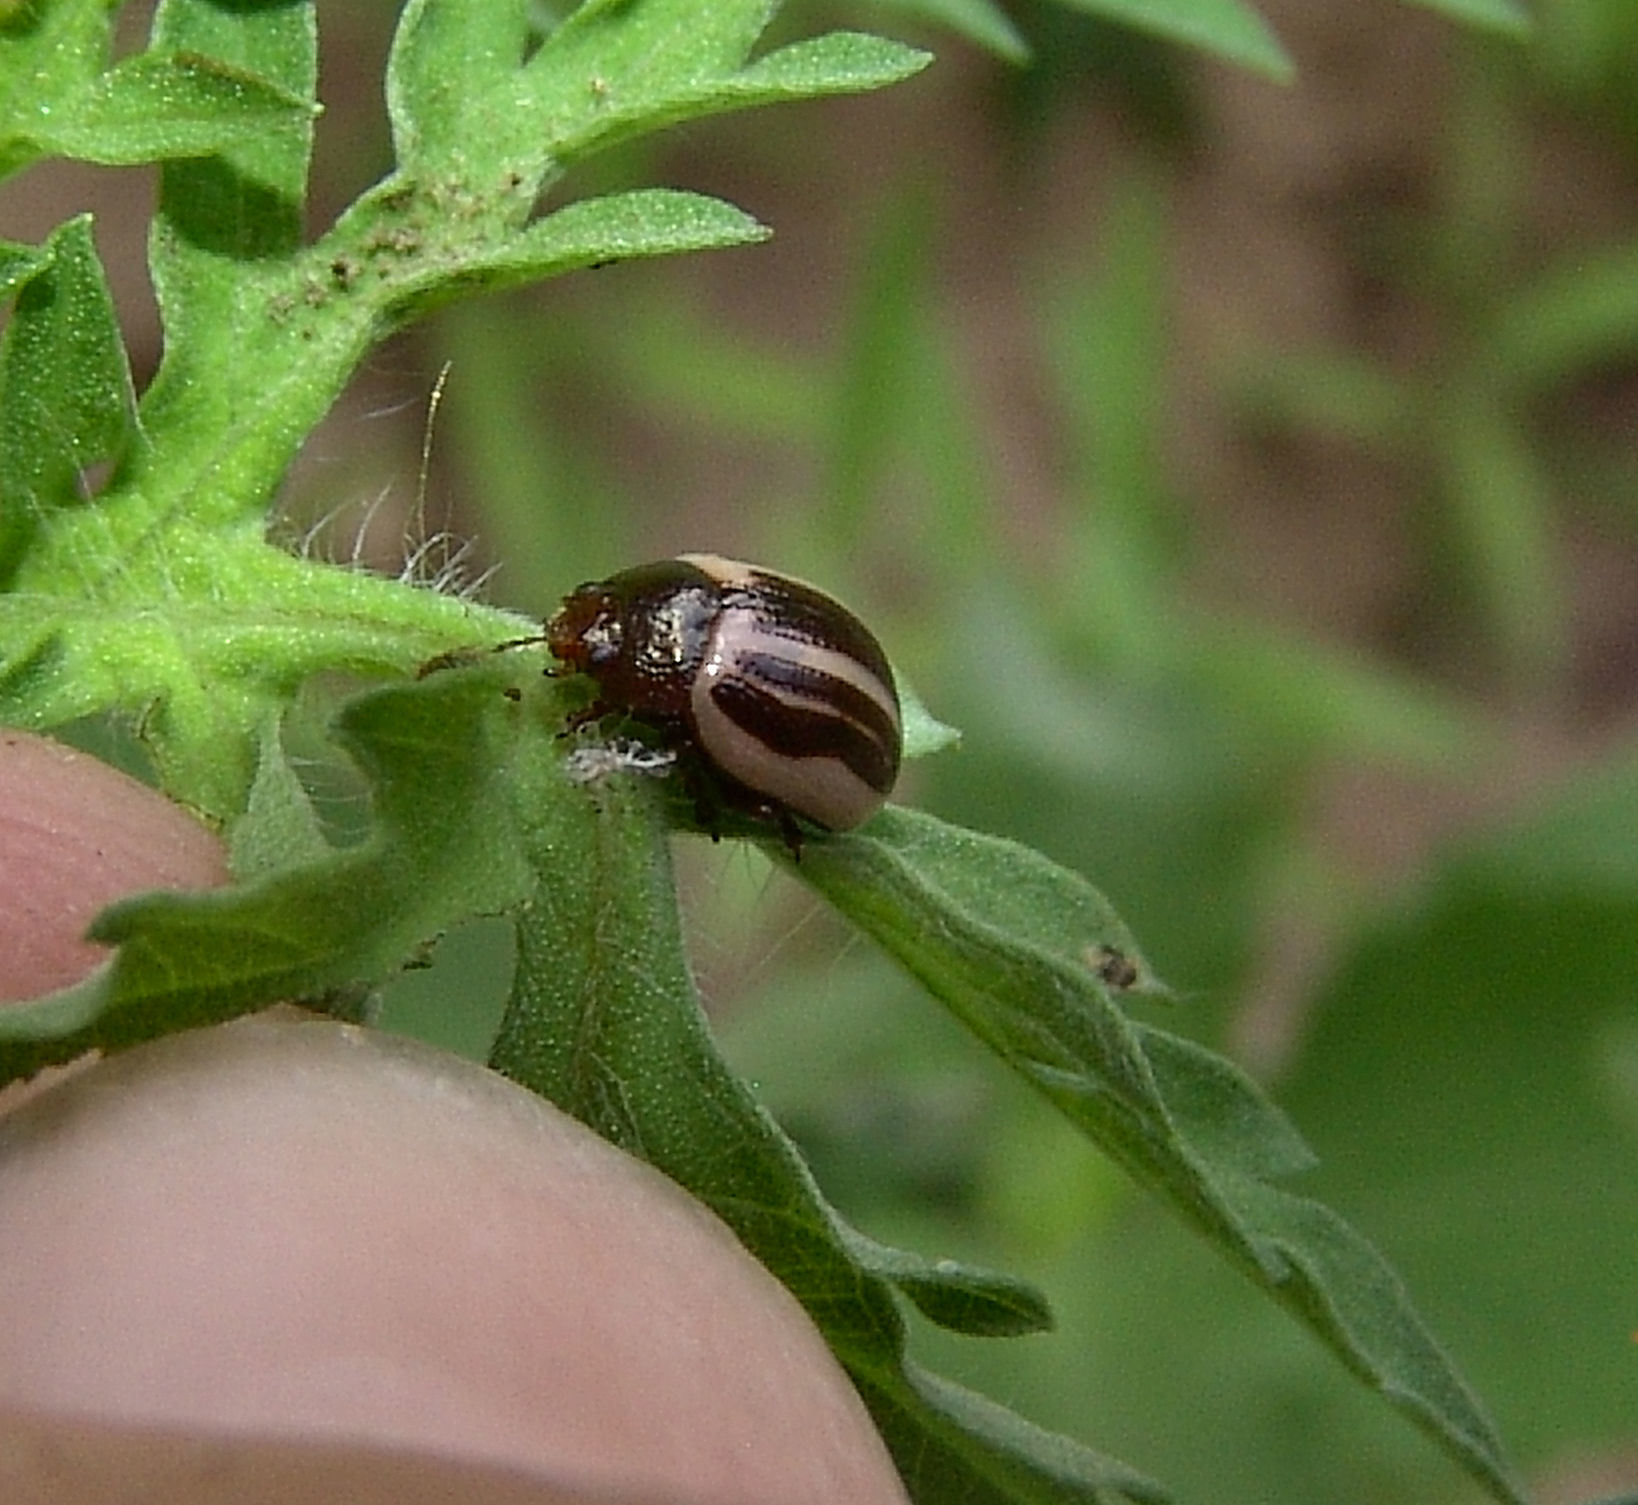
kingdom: Animalia
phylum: Arthropoda
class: Insecta
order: Coleoptera
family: Chrysomelidae
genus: Calligrapha
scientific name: Calligrapha
